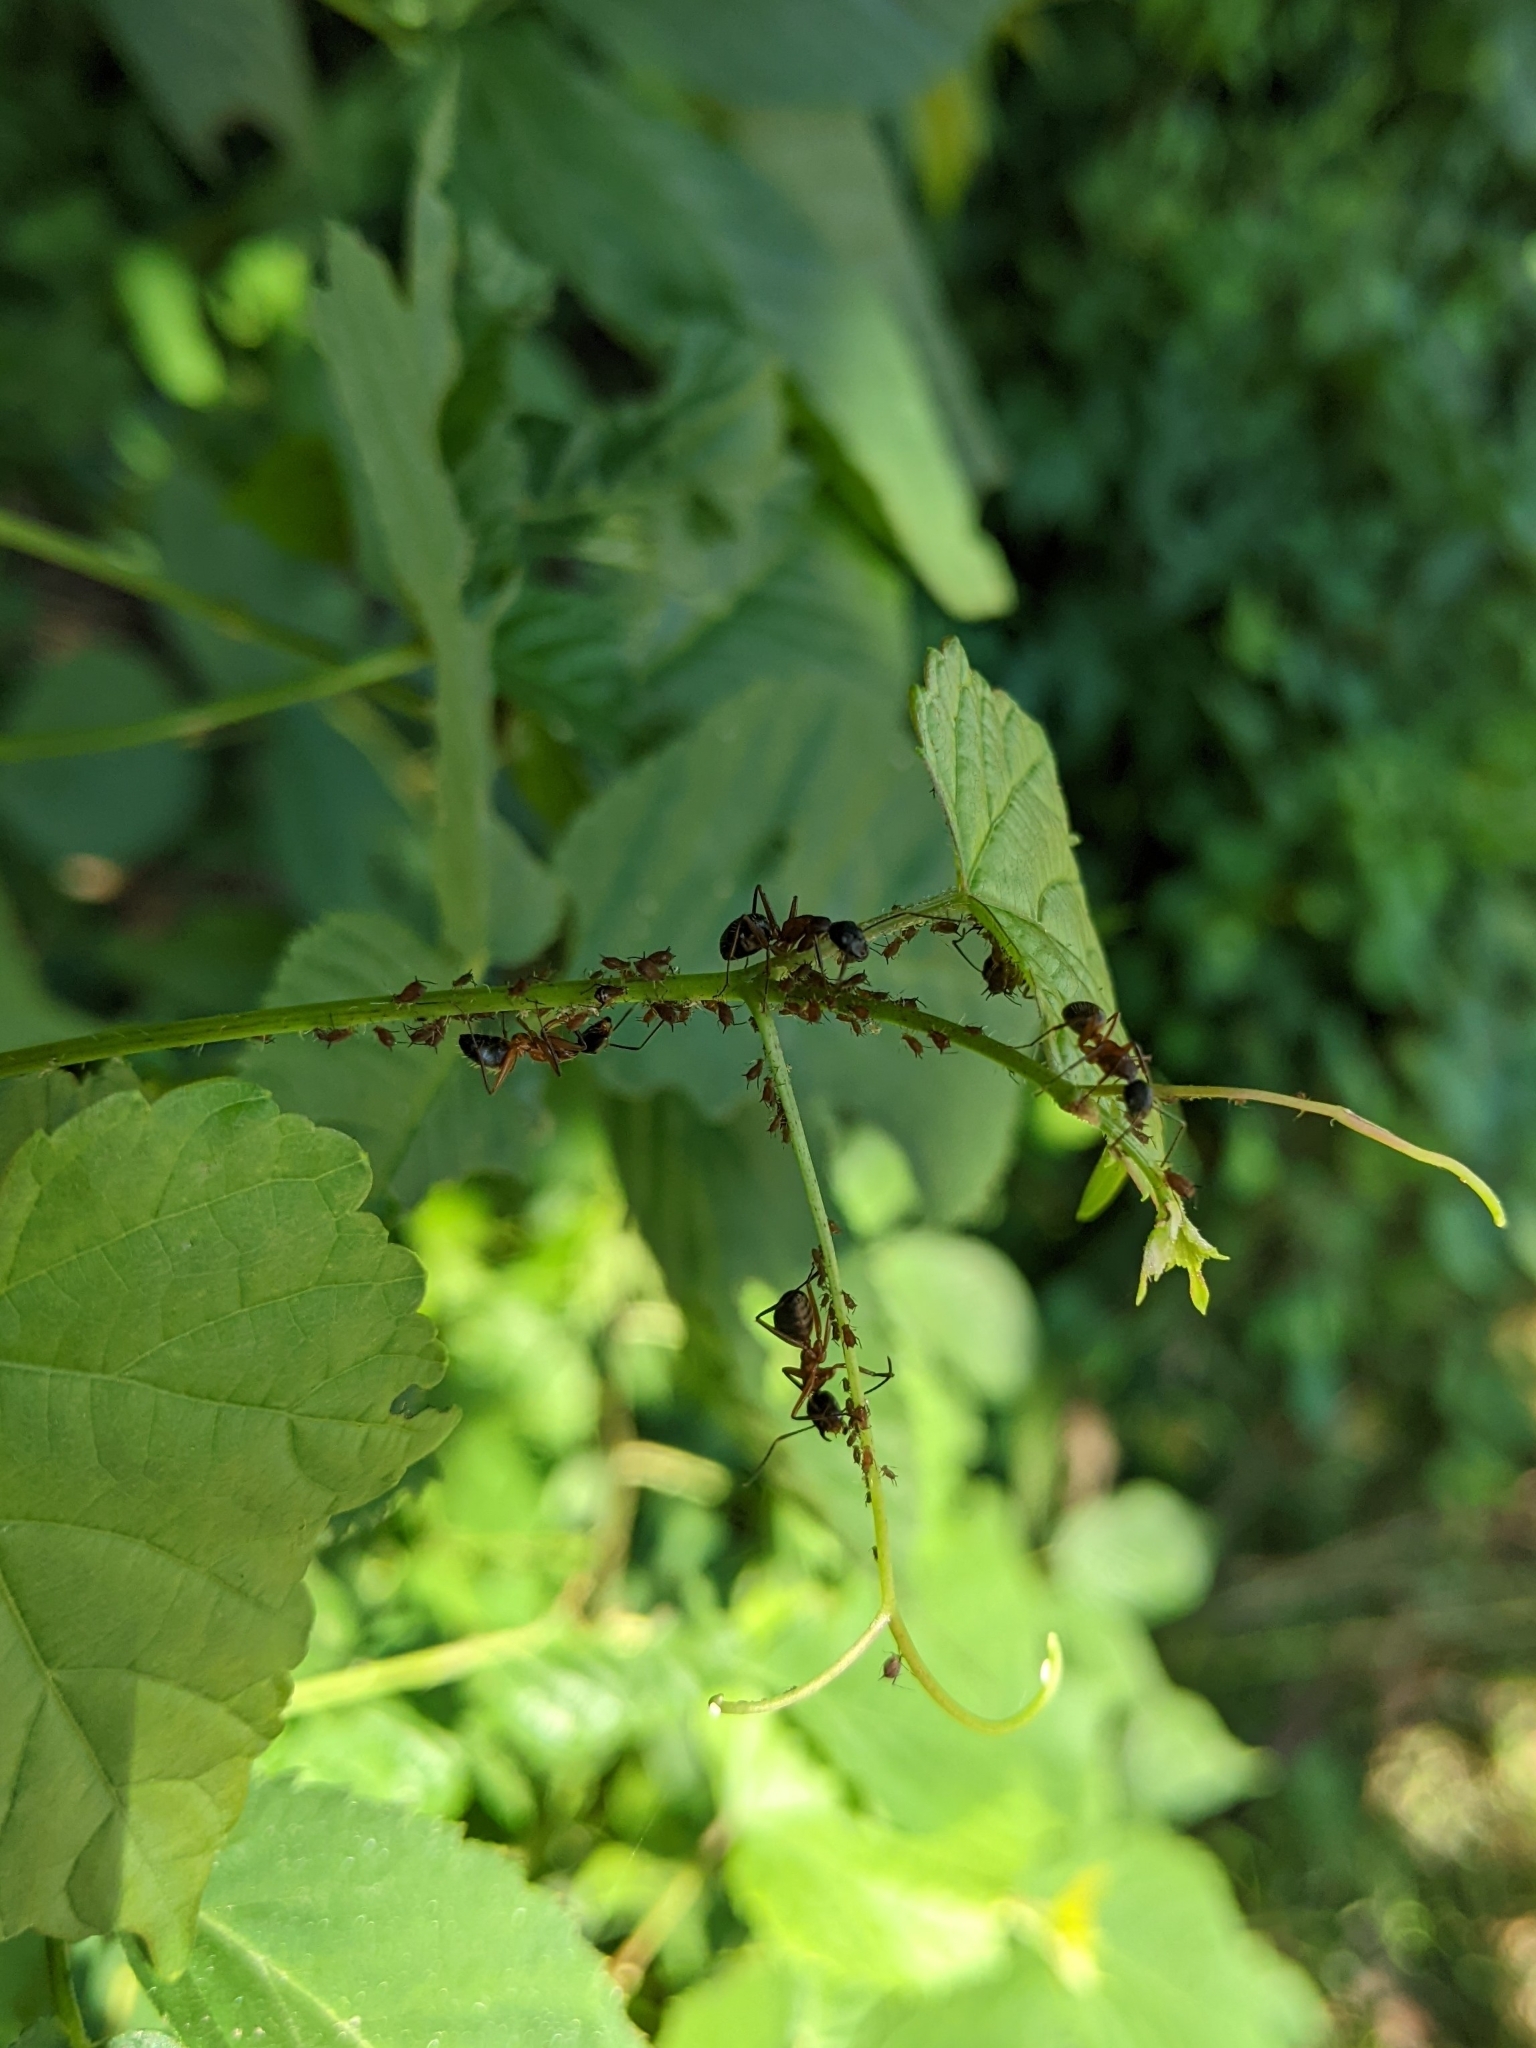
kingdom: Animalia
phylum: Arthropoda
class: Insecta
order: Hymenoptera
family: Formicidae
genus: Camponotus
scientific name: Camponotus chromaiodes
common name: Red carpenter ant
